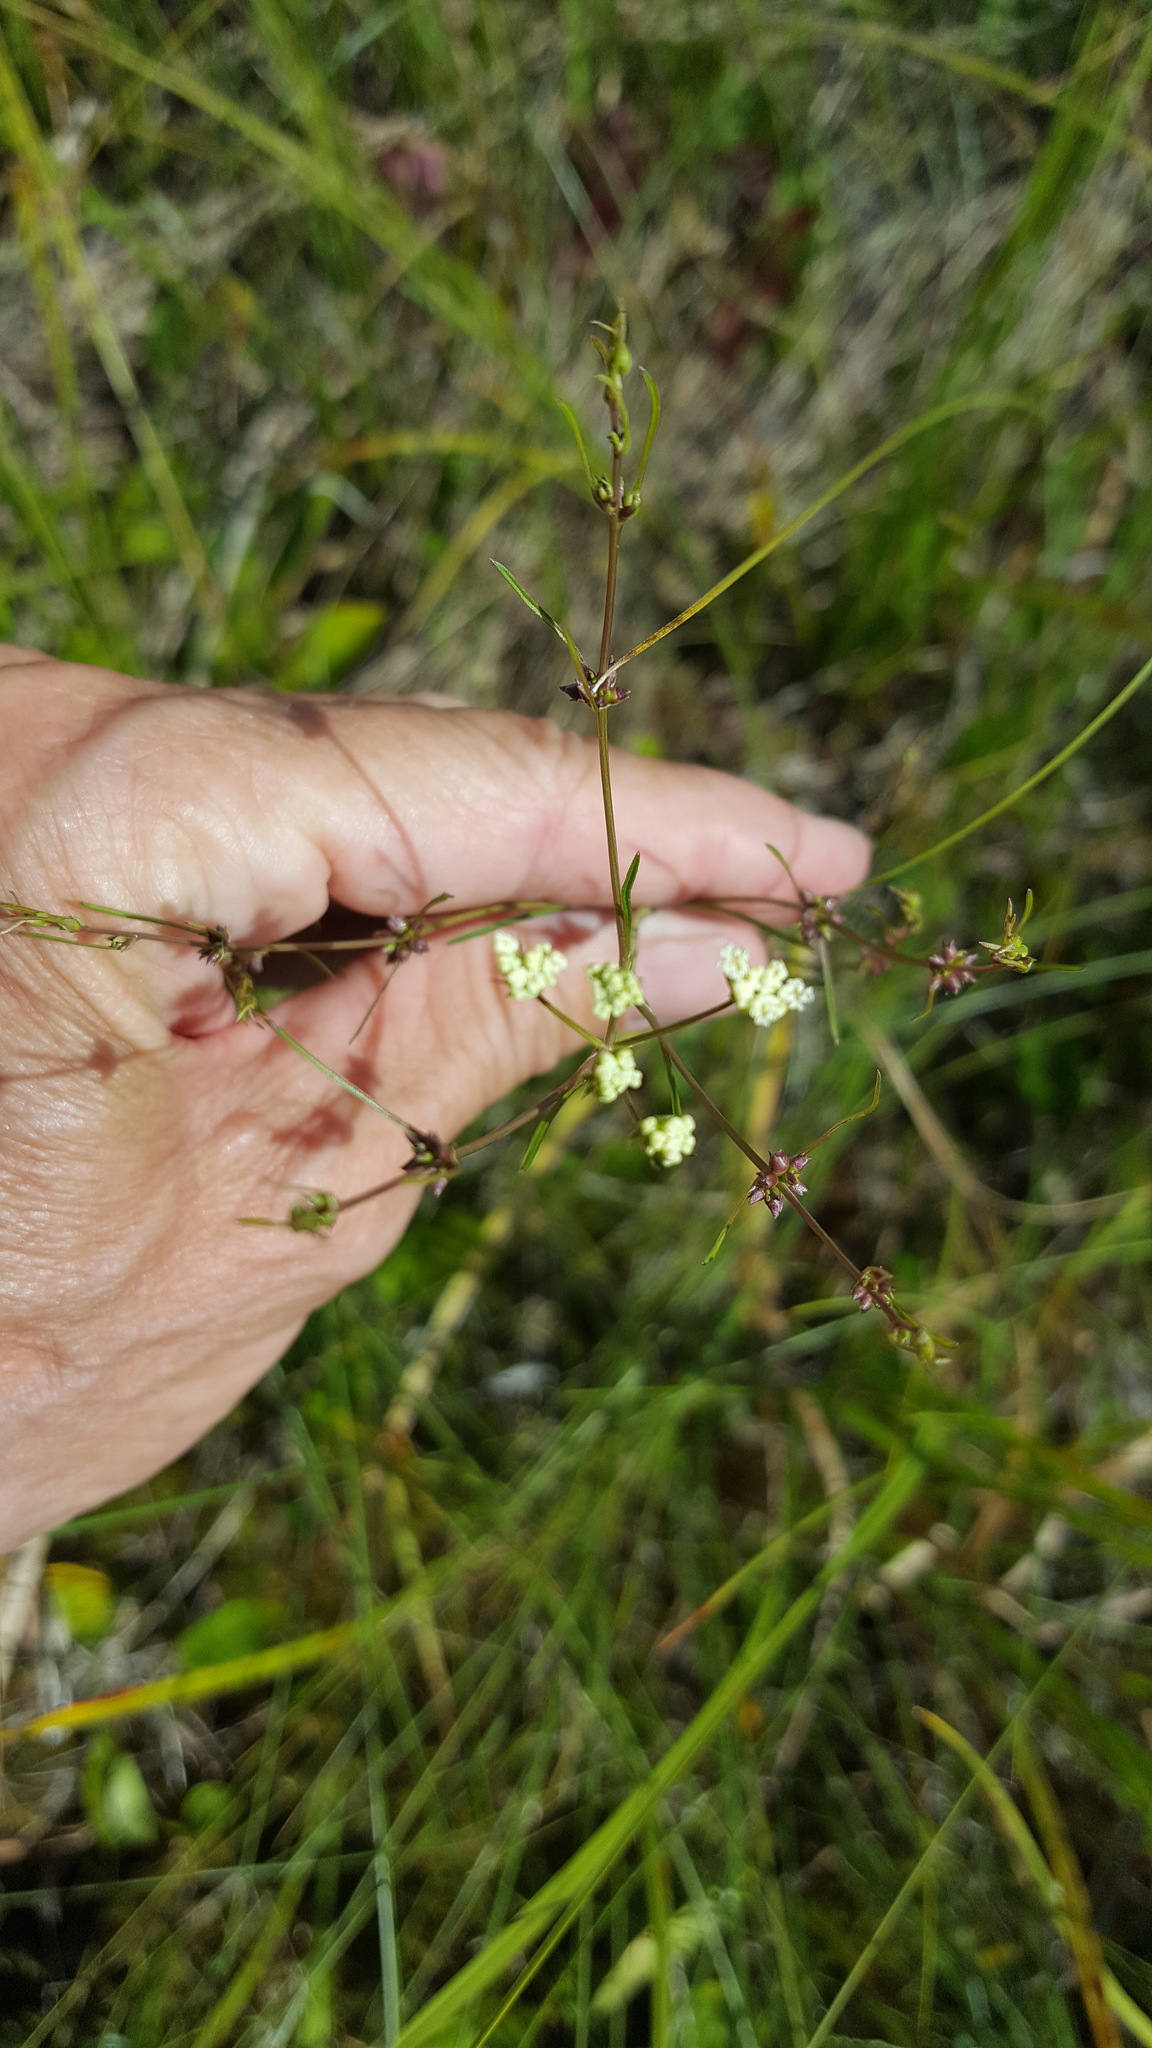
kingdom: Plantae
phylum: Tracheophyta
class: Magnoliopsida
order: Apiales
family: Apiaceae
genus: Cicuta
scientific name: Cicuta bulbifera
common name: Bulb-bearing water-hemlock
